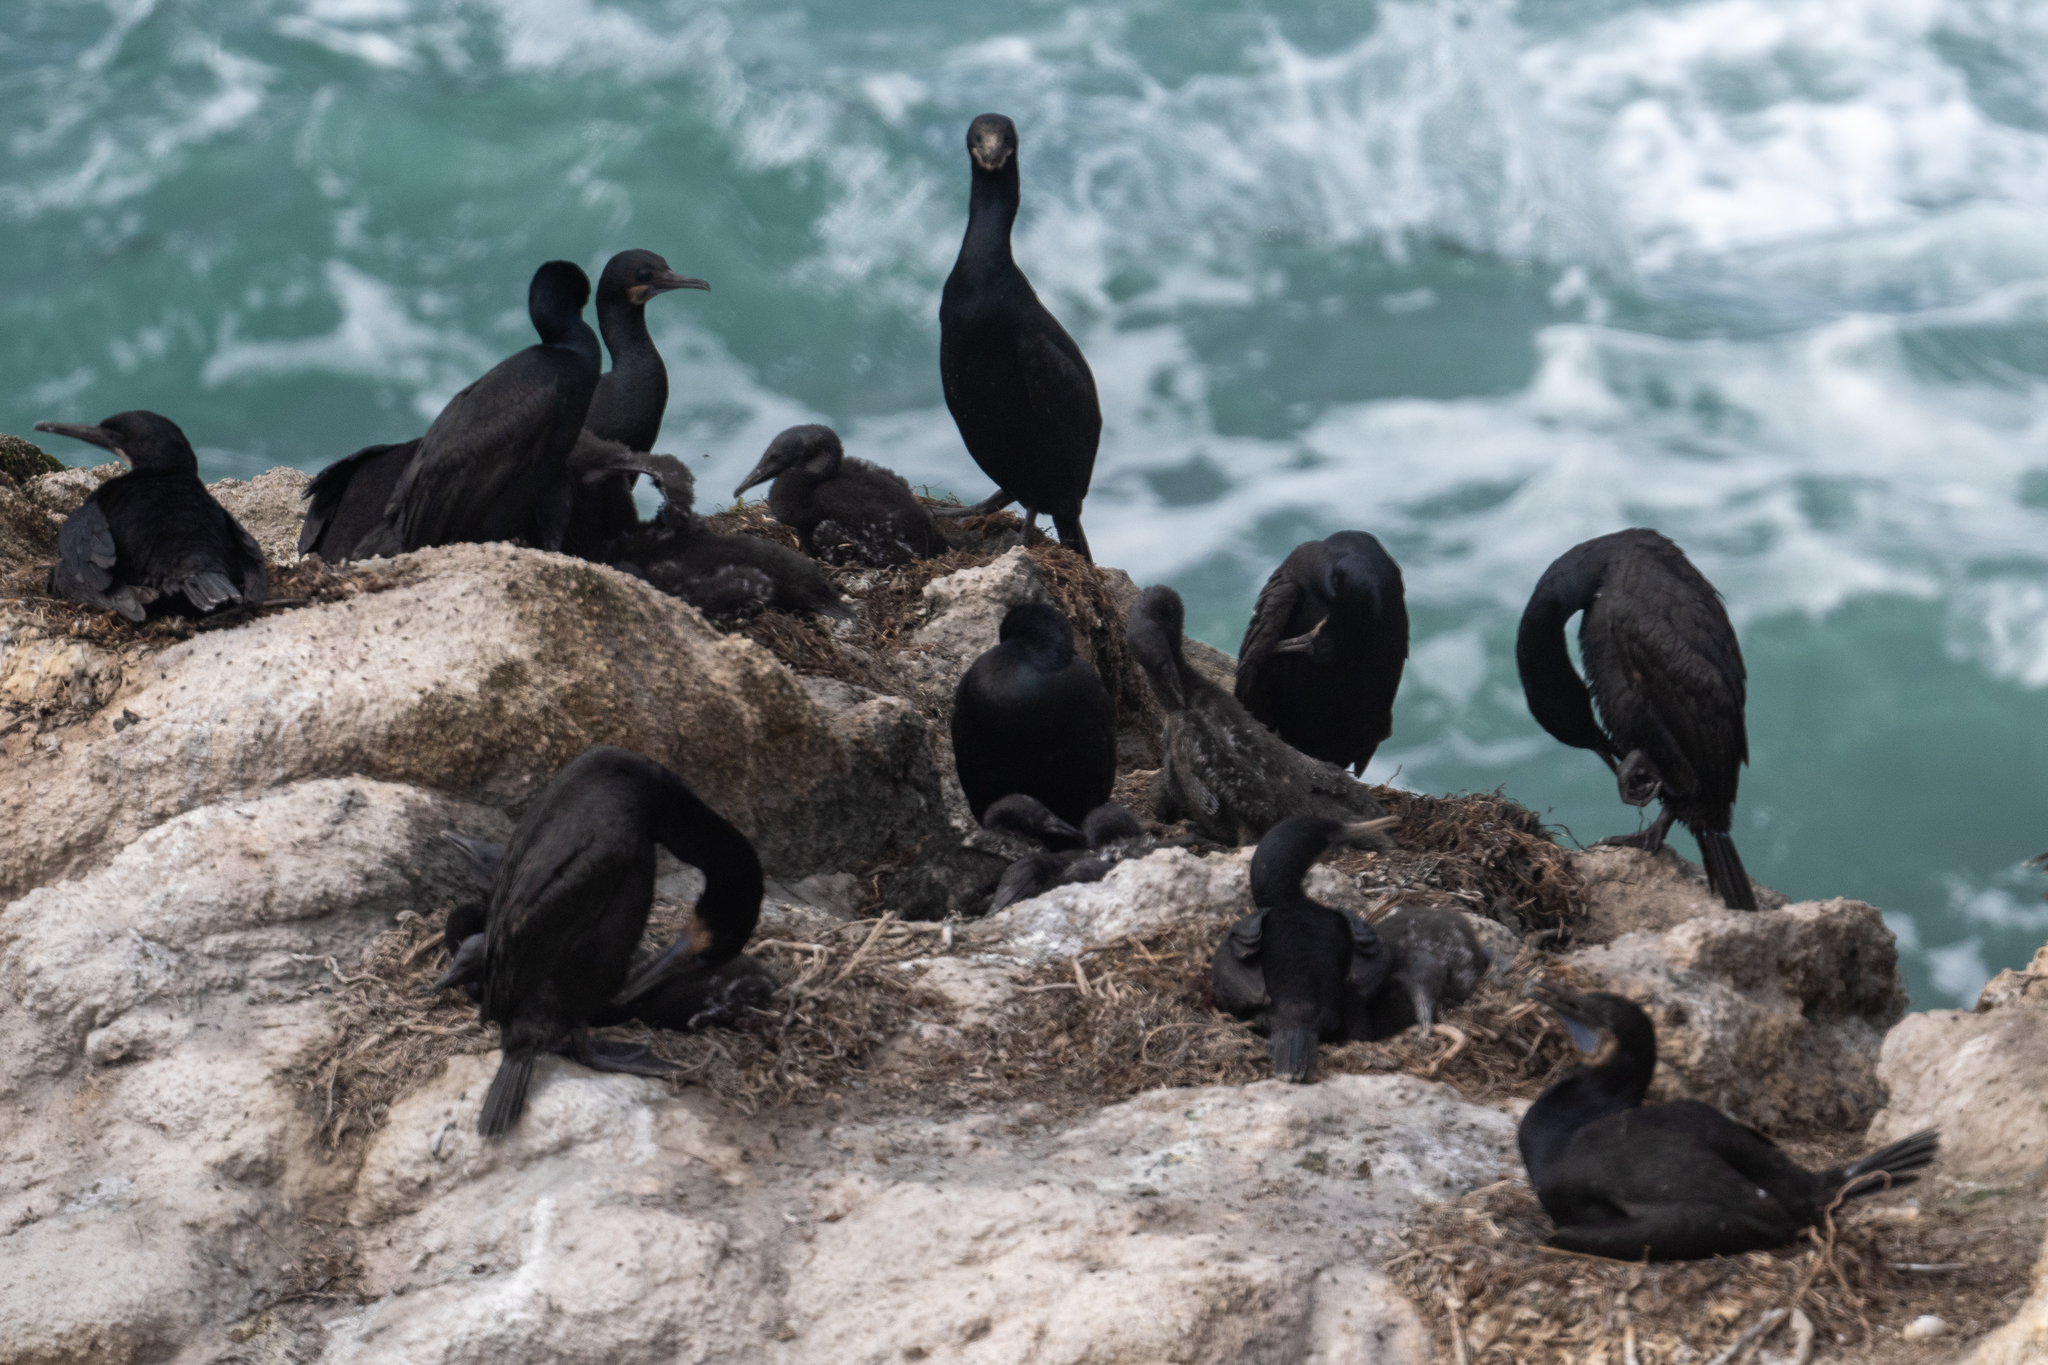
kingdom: Animalia
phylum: Chordata
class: Aves
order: Suliformes
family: Phalacrocoracidae
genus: Urile
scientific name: Urile penicillatus
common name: Brandt's cormorant
